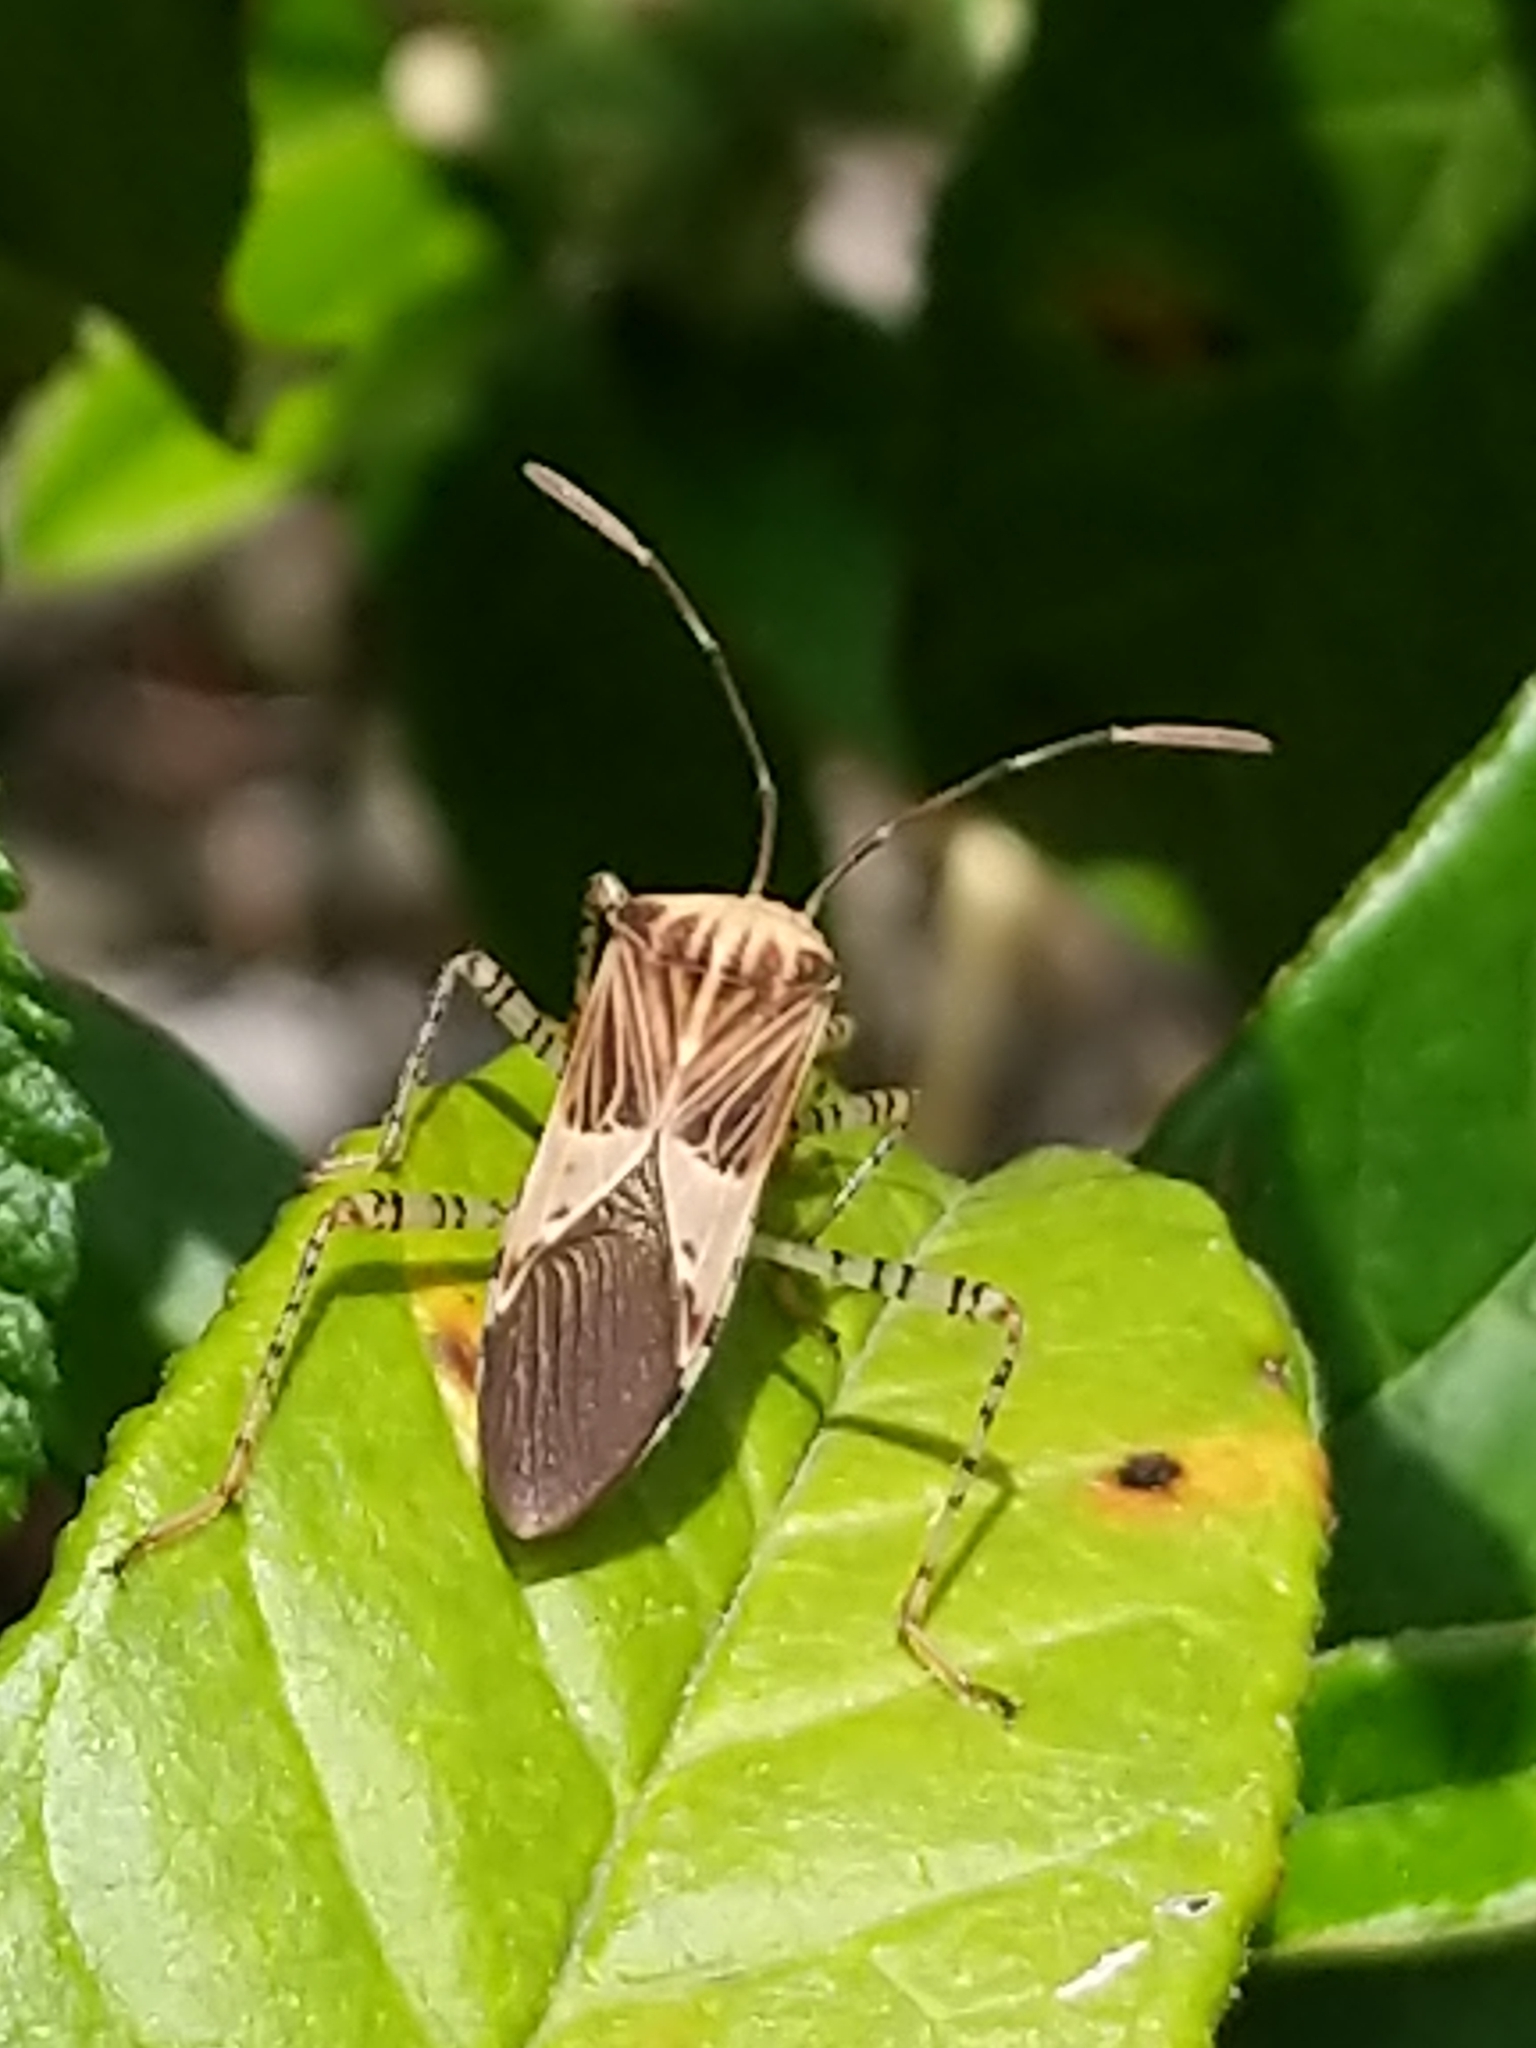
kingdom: Animalia
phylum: Arthropoda
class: Insecta
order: Hemiptera
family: Coreidae
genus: Hypselonotus
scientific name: Hypselonotus punctiventris
